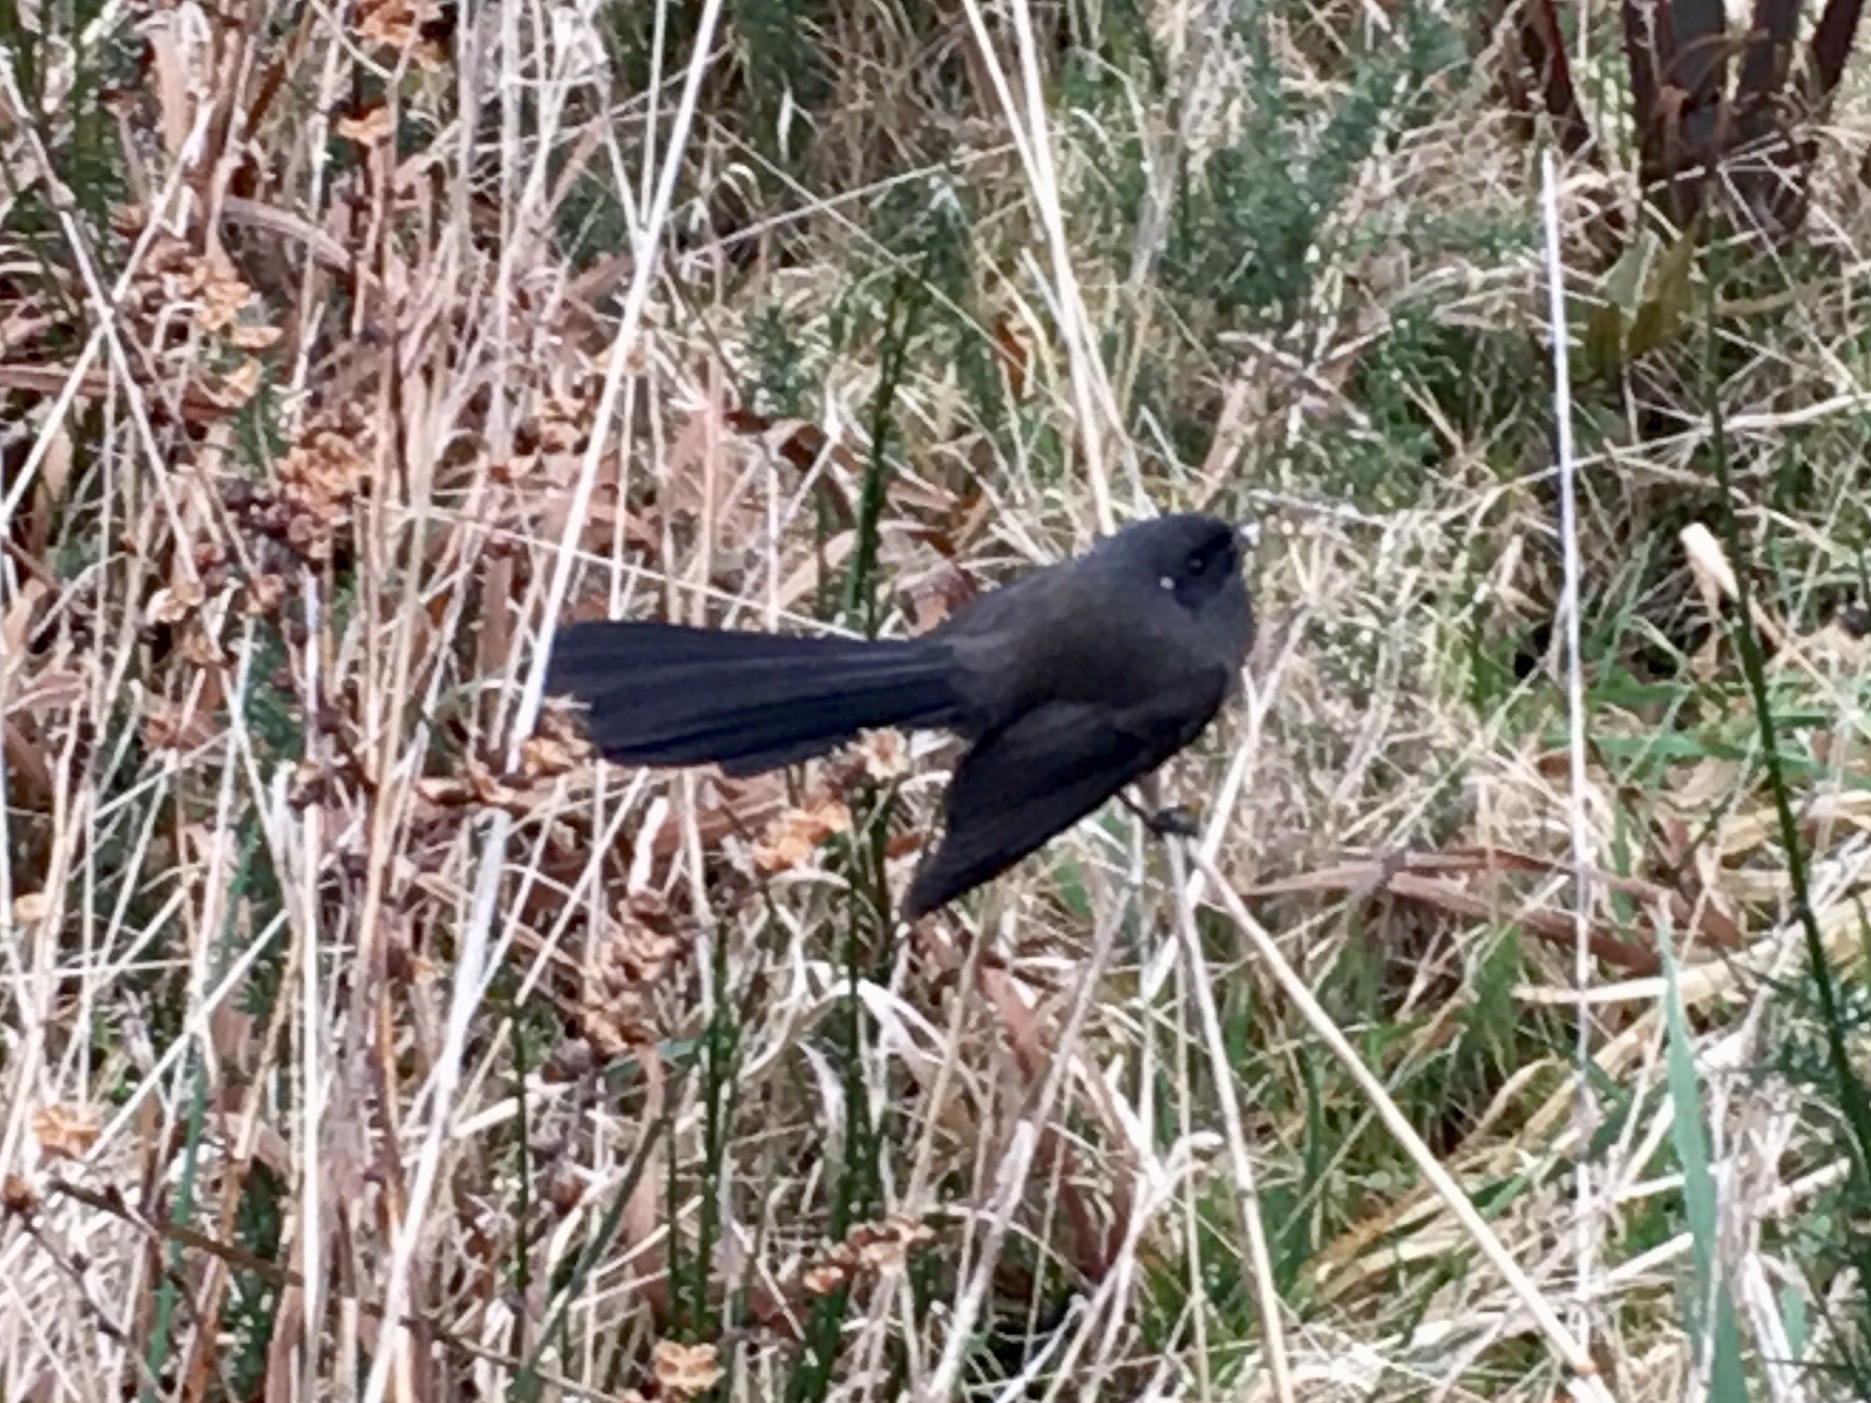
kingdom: Animalia
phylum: Chordata
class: Aves
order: Passeriformes
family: Rhipiduridae
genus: Rhipidura
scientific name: Rhipidura fuliginosa
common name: New zealand fantail
